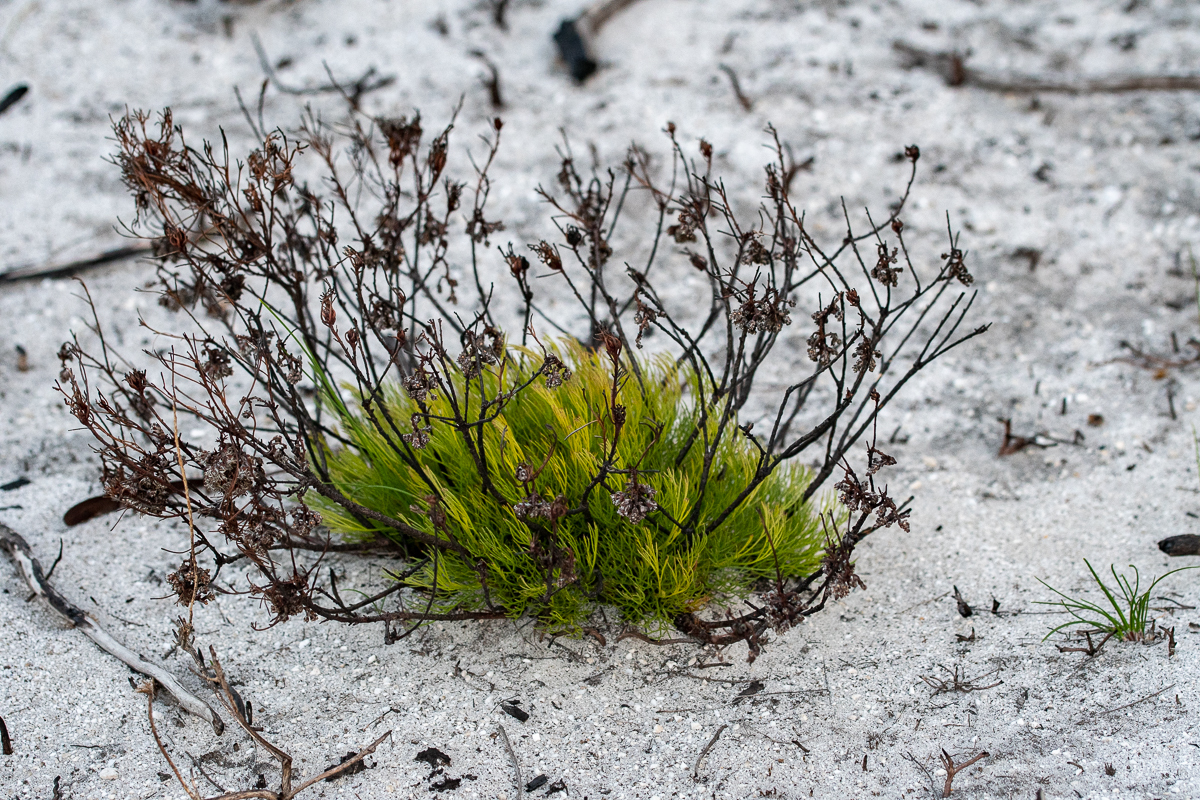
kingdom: Plantae
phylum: Tracheophyta
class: Magnoliopsida
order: Proteales
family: Proteaceae
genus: Serruria
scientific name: Serruria rubricaulis
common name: Red-stem spiderhead
